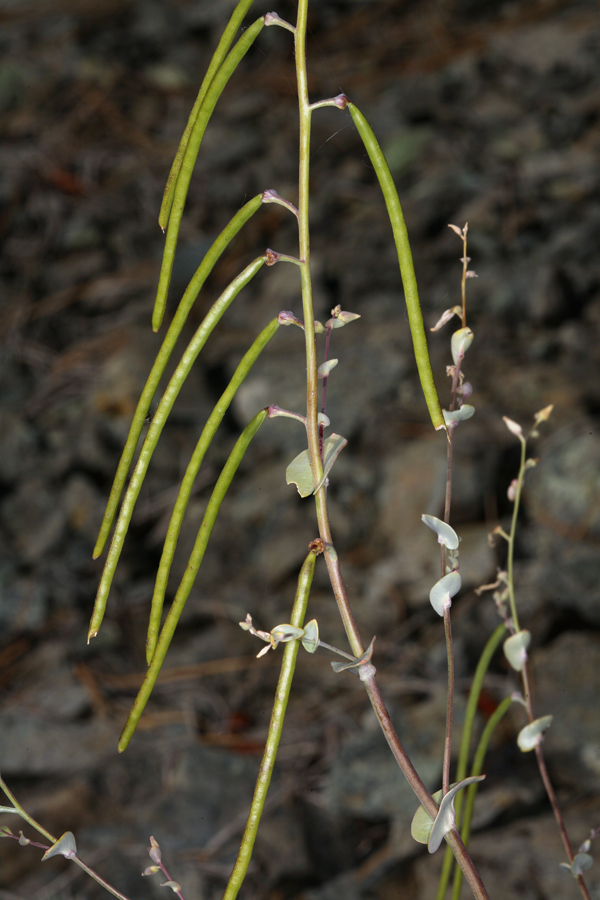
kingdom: Plantae
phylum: Tracheophyta
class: Magnoliopsida
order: Brassicales
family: Brassicaceae
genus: Streptanthus
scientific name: Streptanthus tortuosus
